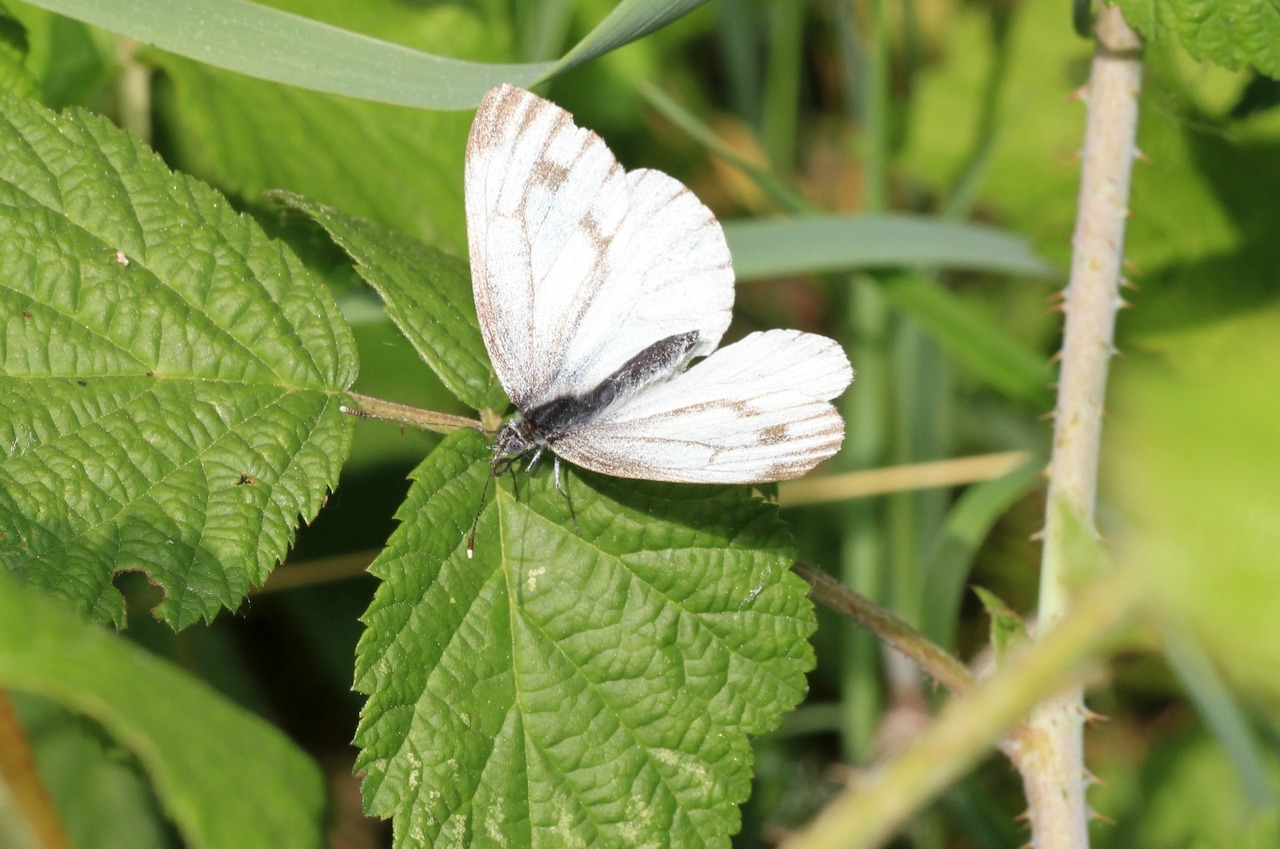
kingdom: Animalia
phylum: Arthropoda
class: Insecta
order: Lepidoptera
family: Pieridae
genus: Pieris
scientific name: Pieris napi
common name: Green-veined white
